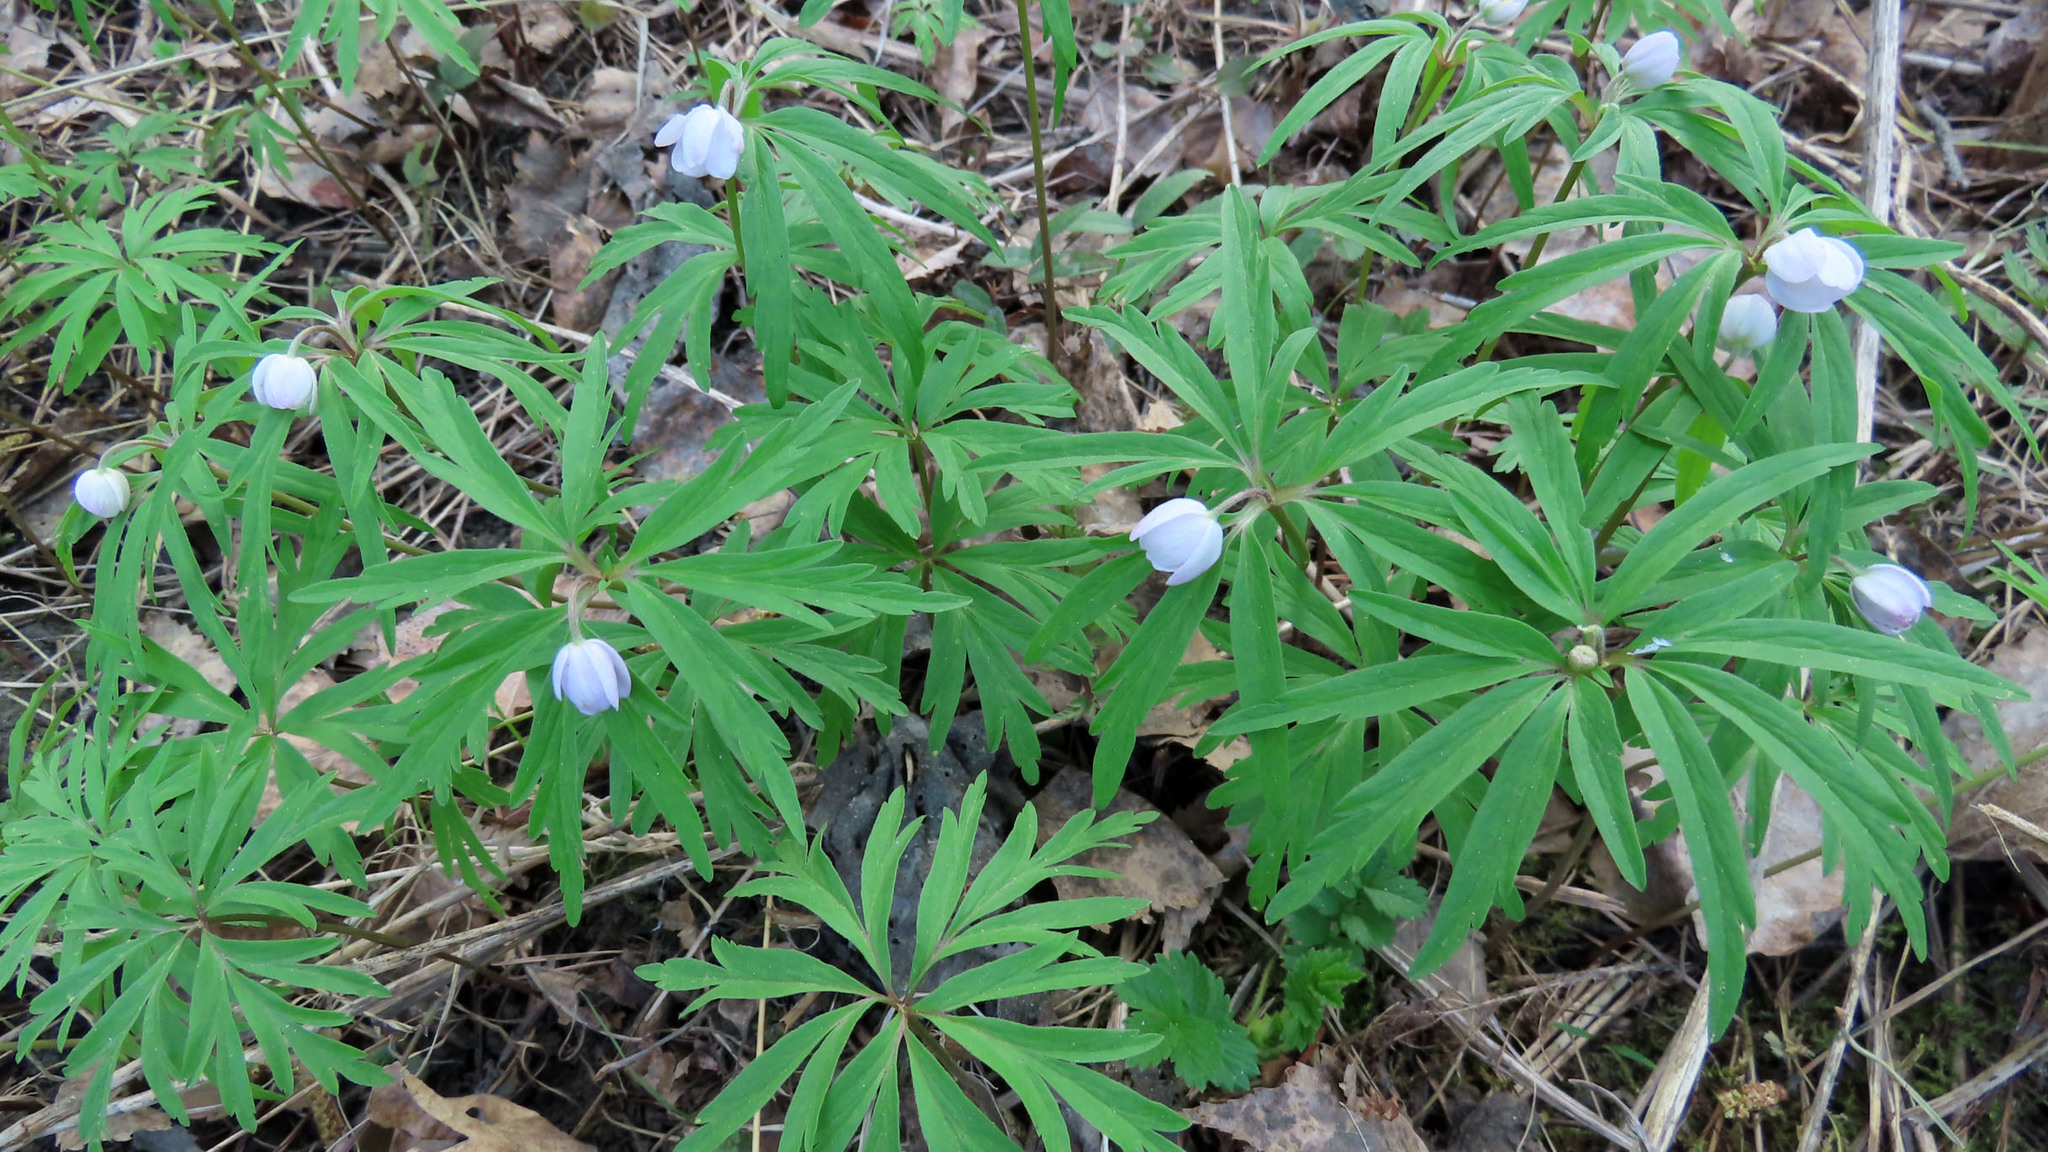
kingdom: Plantae
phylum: Tracheophyta
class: Magnoliopsida
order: Ranunculales
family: Ranunculaceae
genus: Anemone
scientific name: Anemone caerulea
